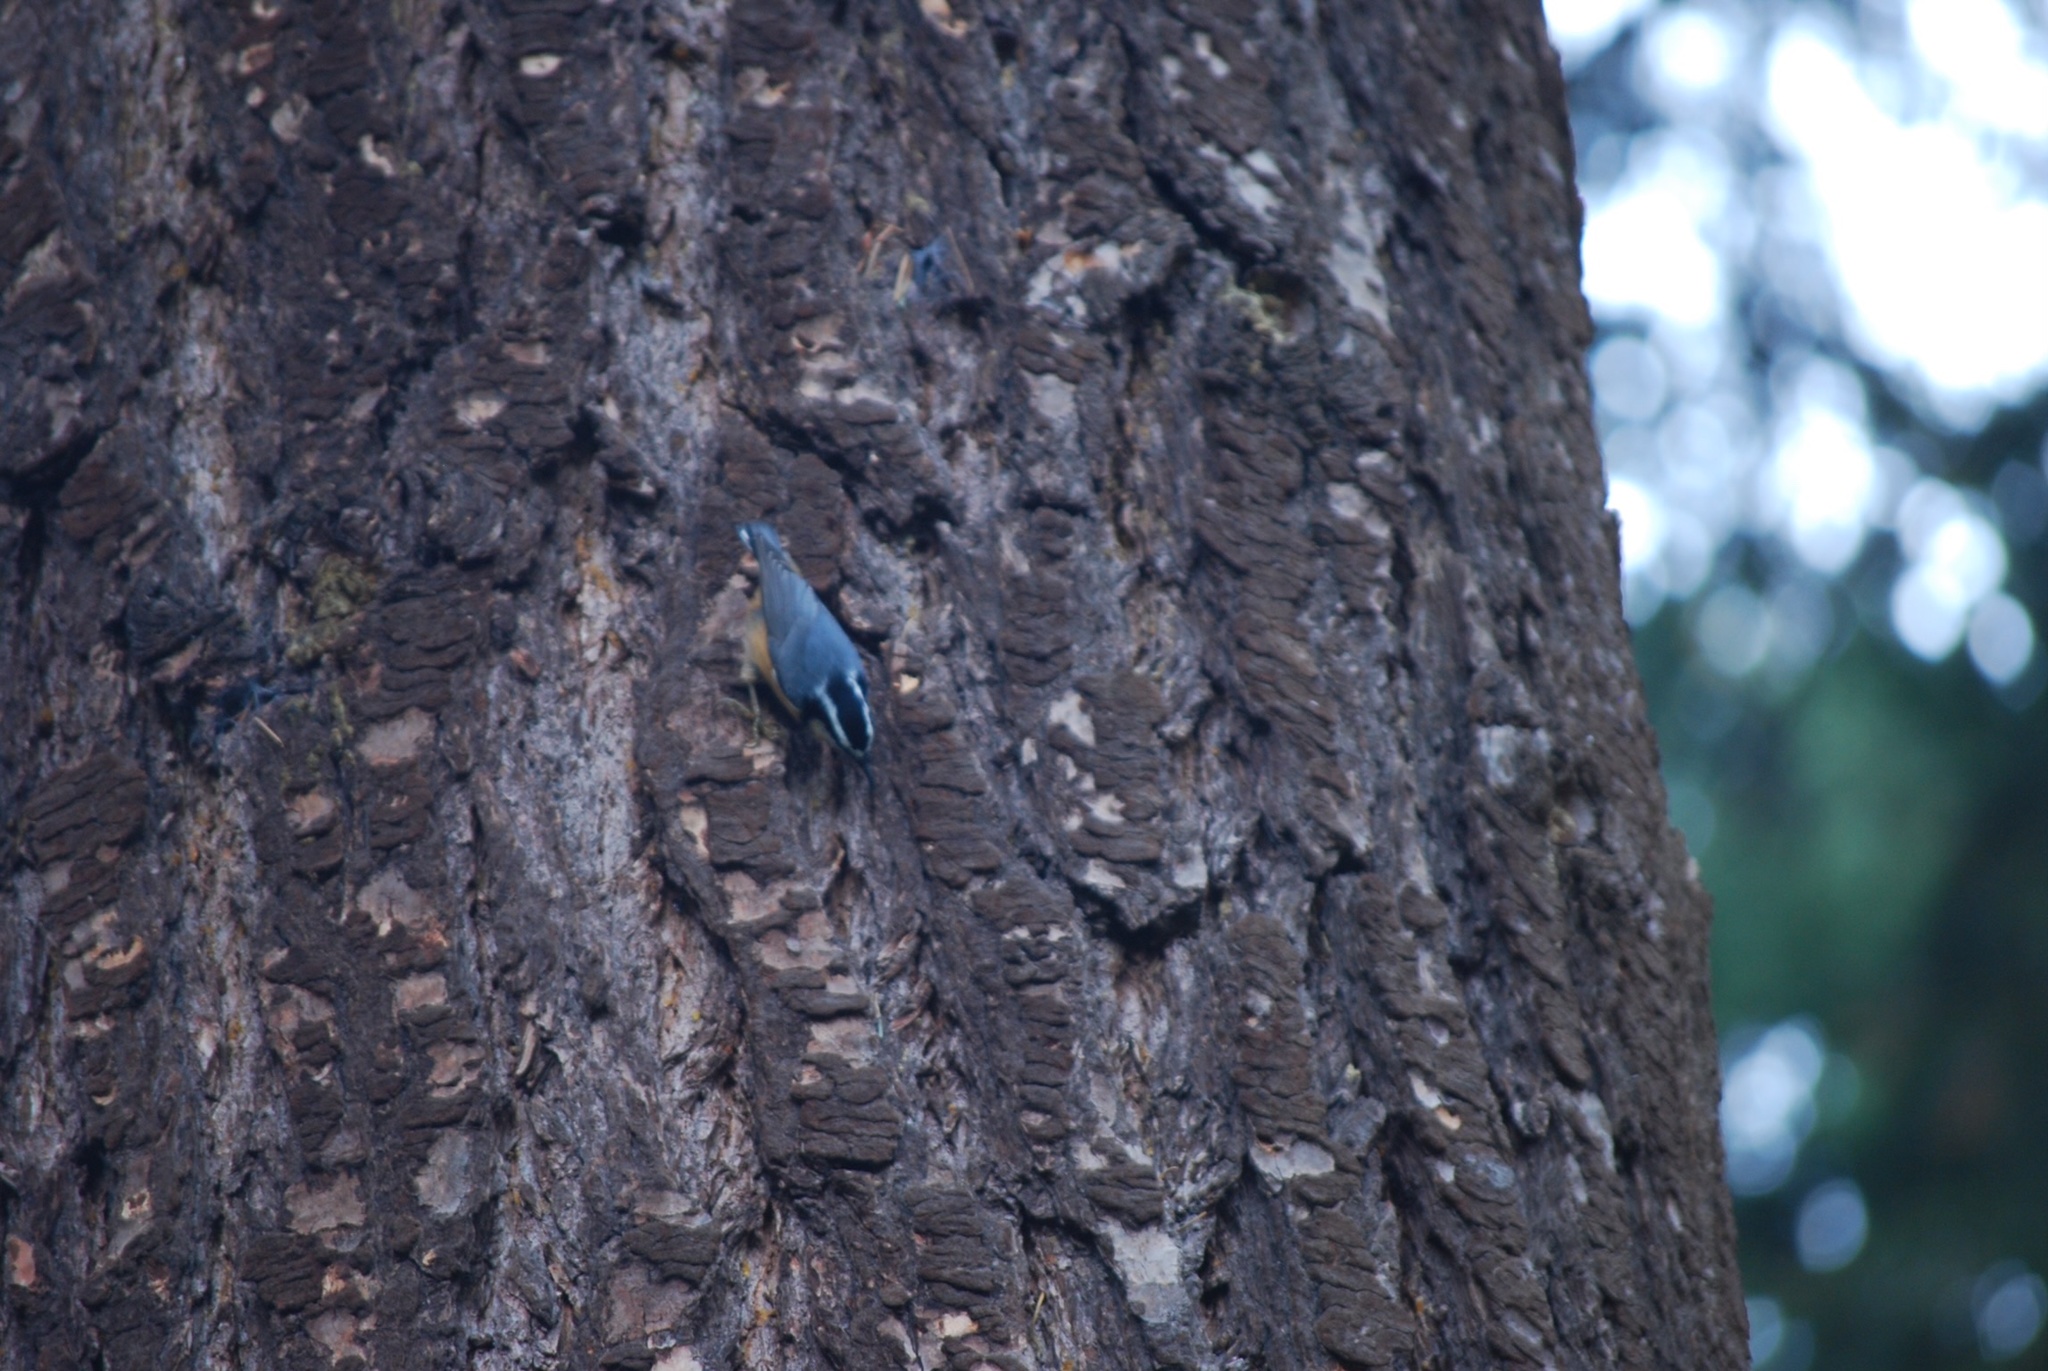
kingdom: Animalia
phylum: Chordata
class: Aves
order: Passeriformes
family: Sittidae
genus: Sitta
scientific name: Sitta canadensis
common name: Red-breasted nuthatch
